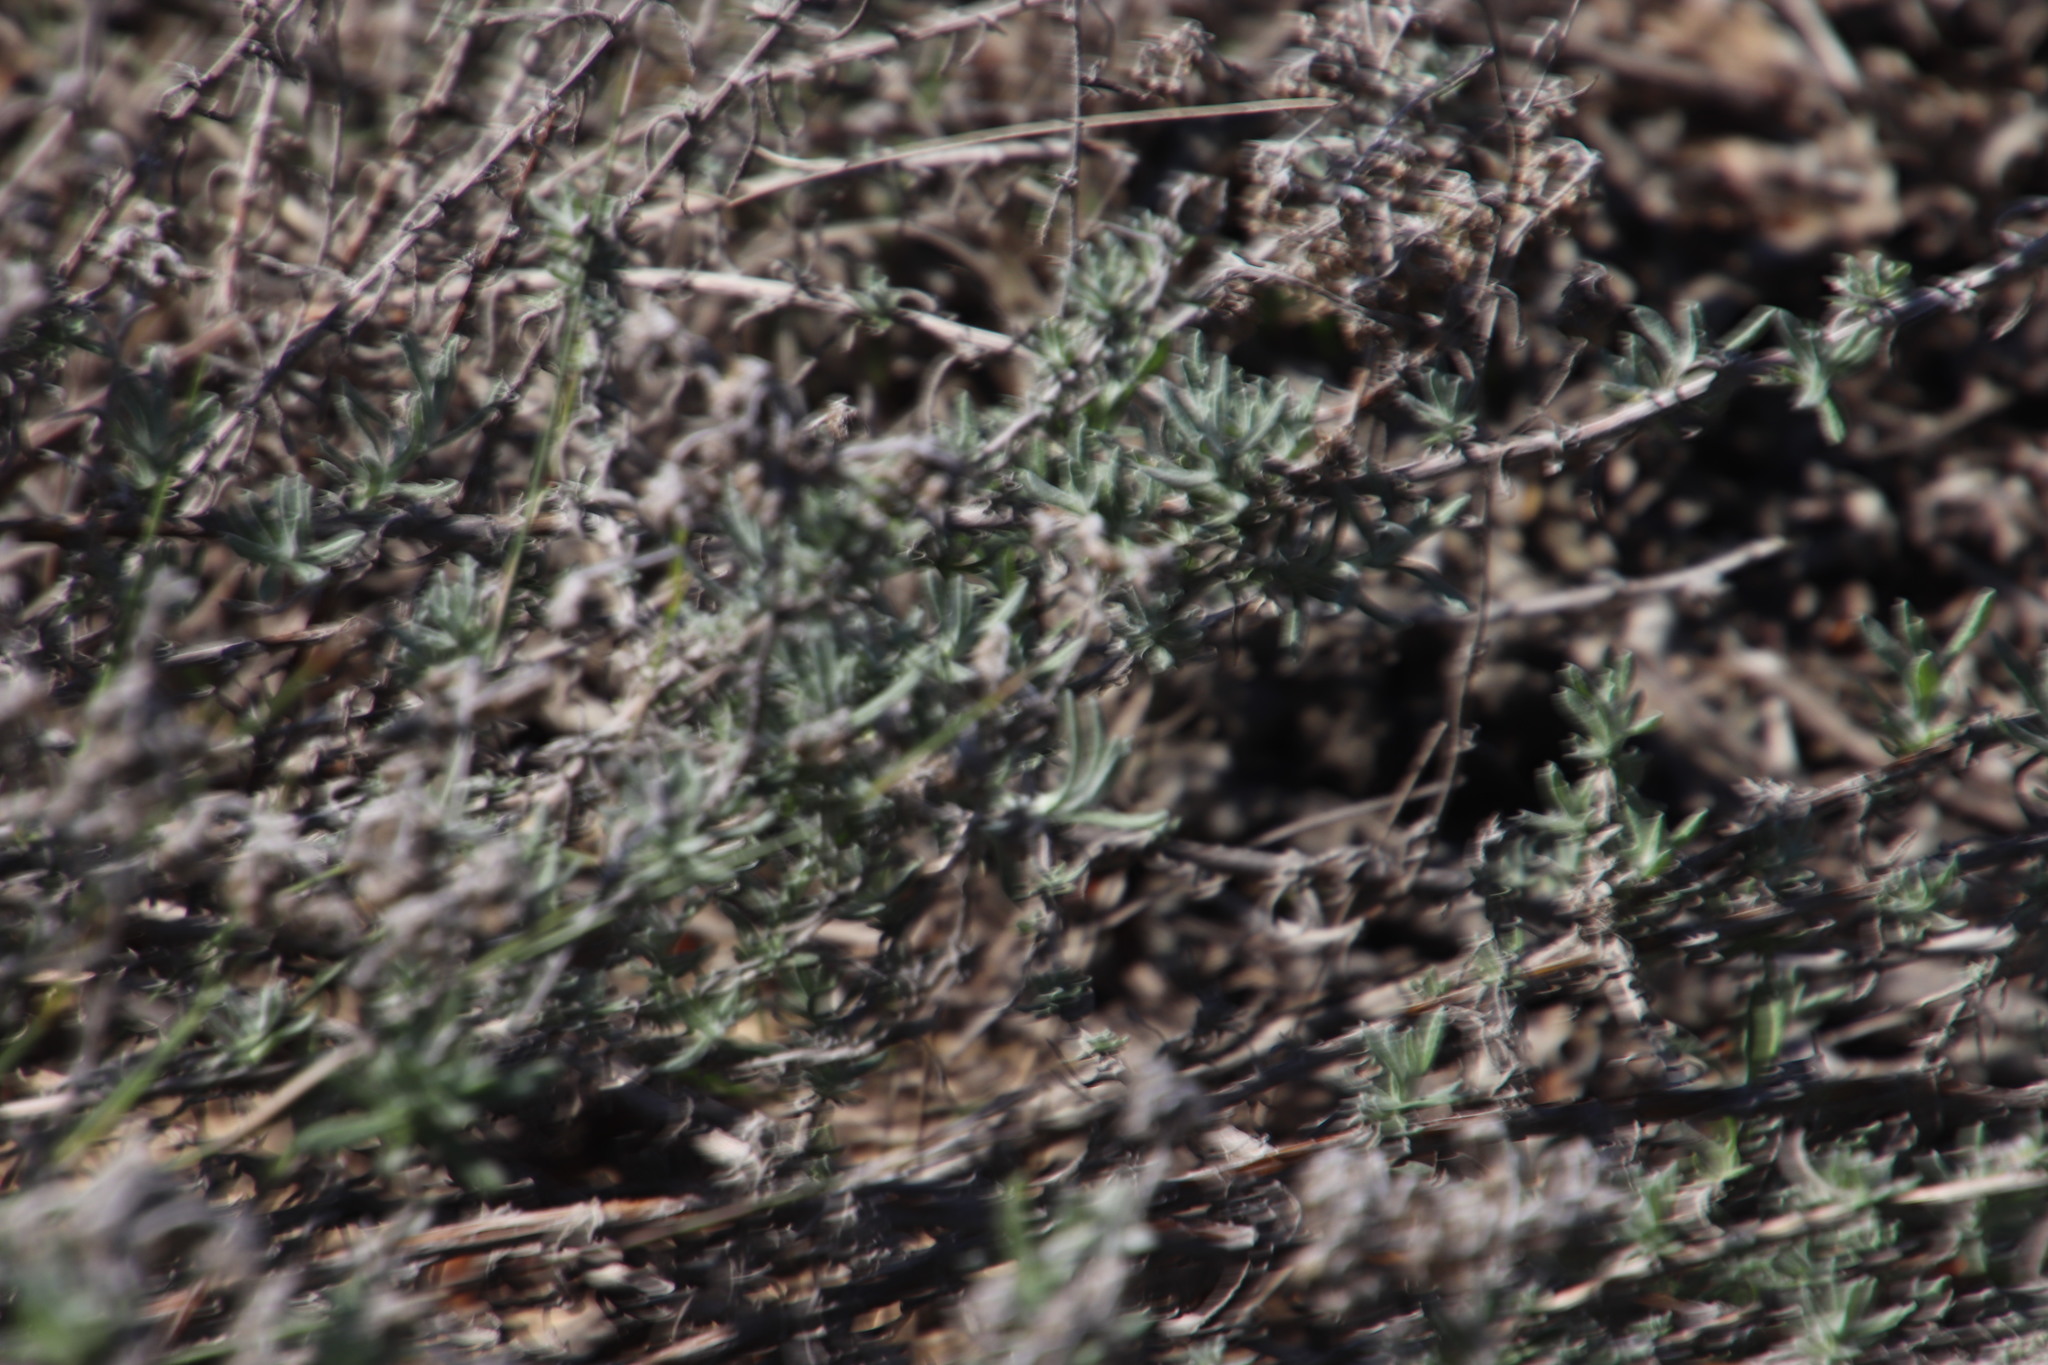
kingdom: Plantae
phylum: Tracheophyta
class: Magnoliopsida
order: Asterales
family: Asteraceae
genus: Helichrysum
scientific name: Helichrysum revolutum
